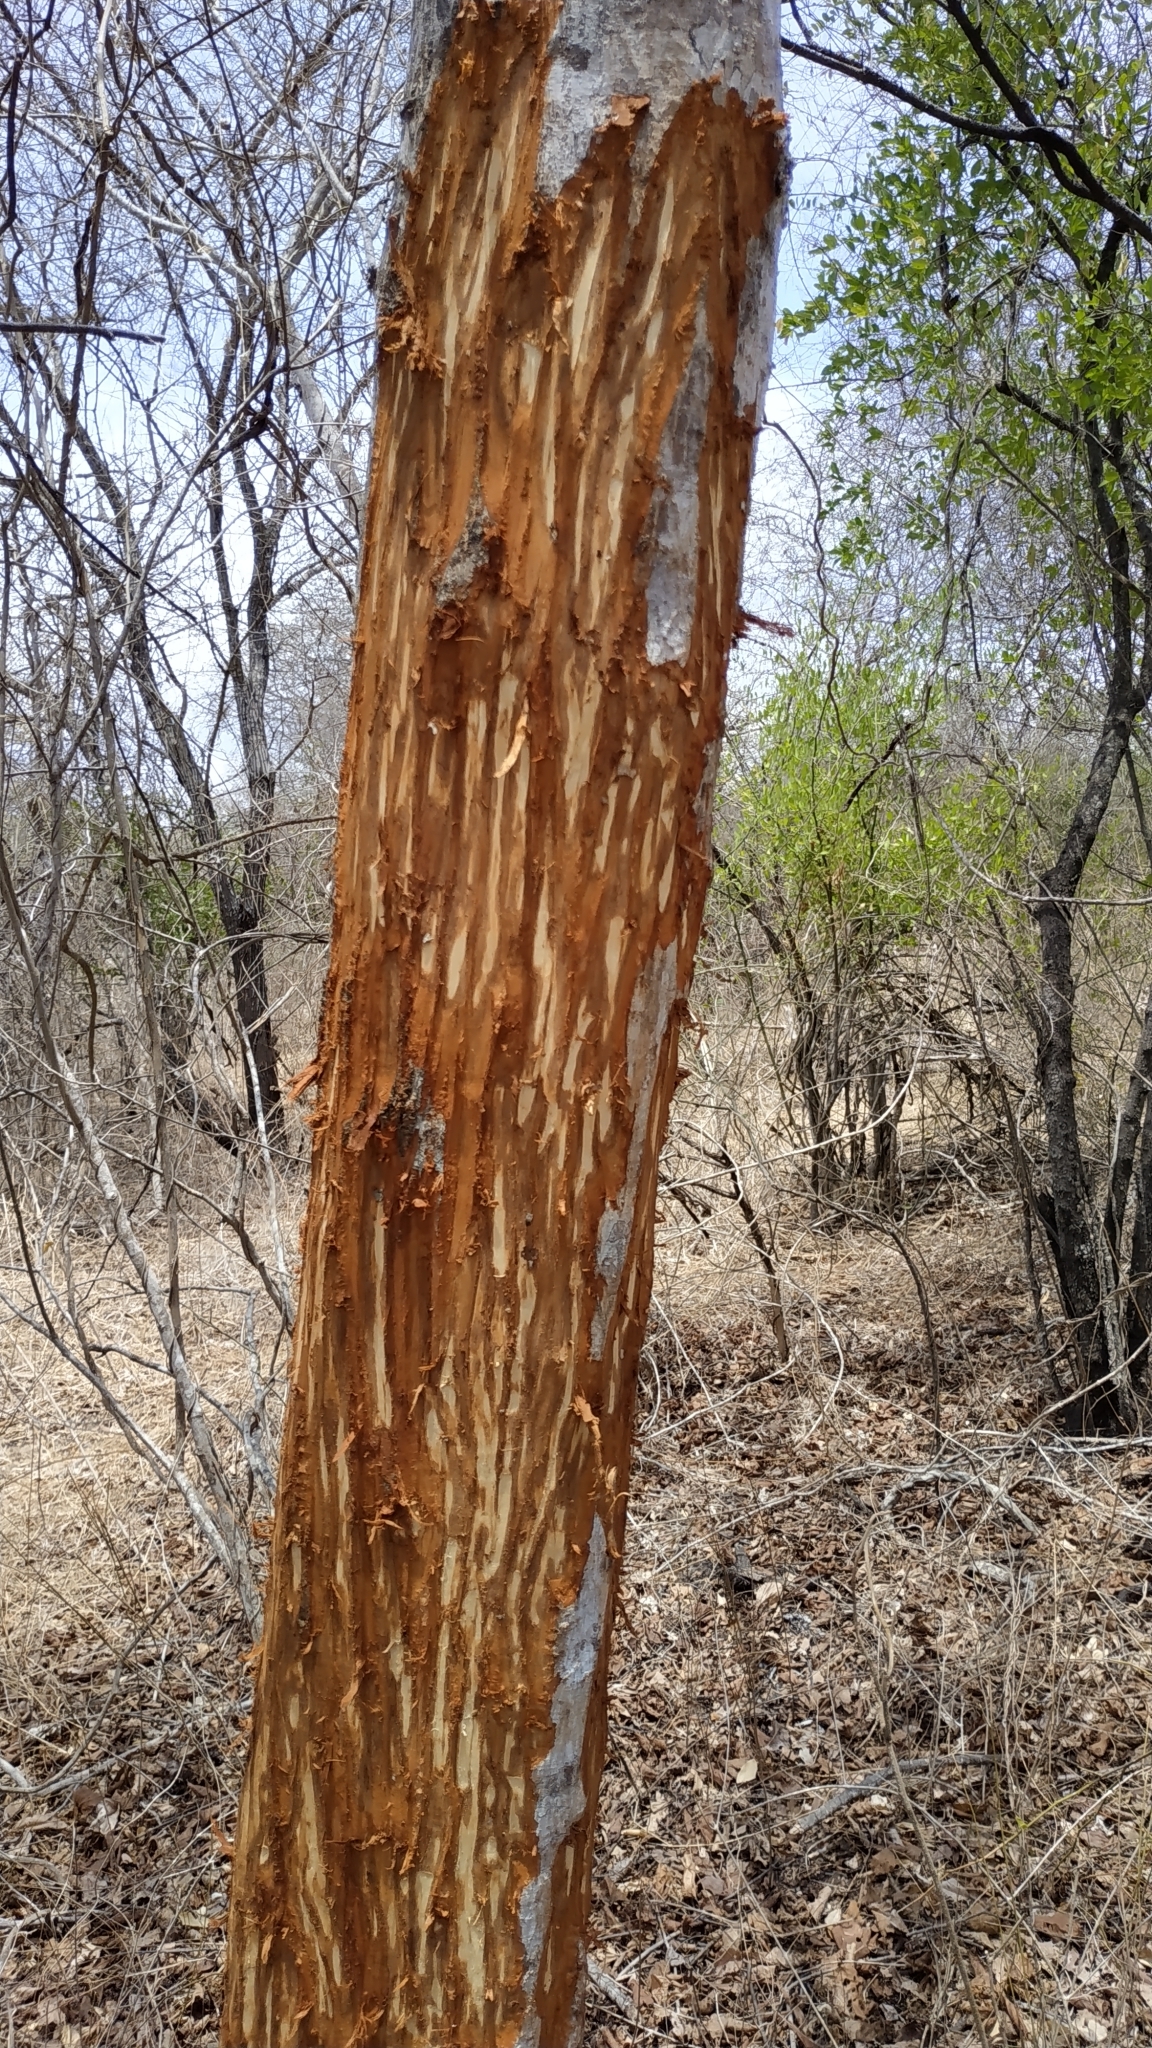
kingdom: Animalia
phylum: Chordata
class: Mammalia
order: Carnivora
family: Felidae
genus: Panthera
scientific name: Panthera pardus
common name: Leopard
